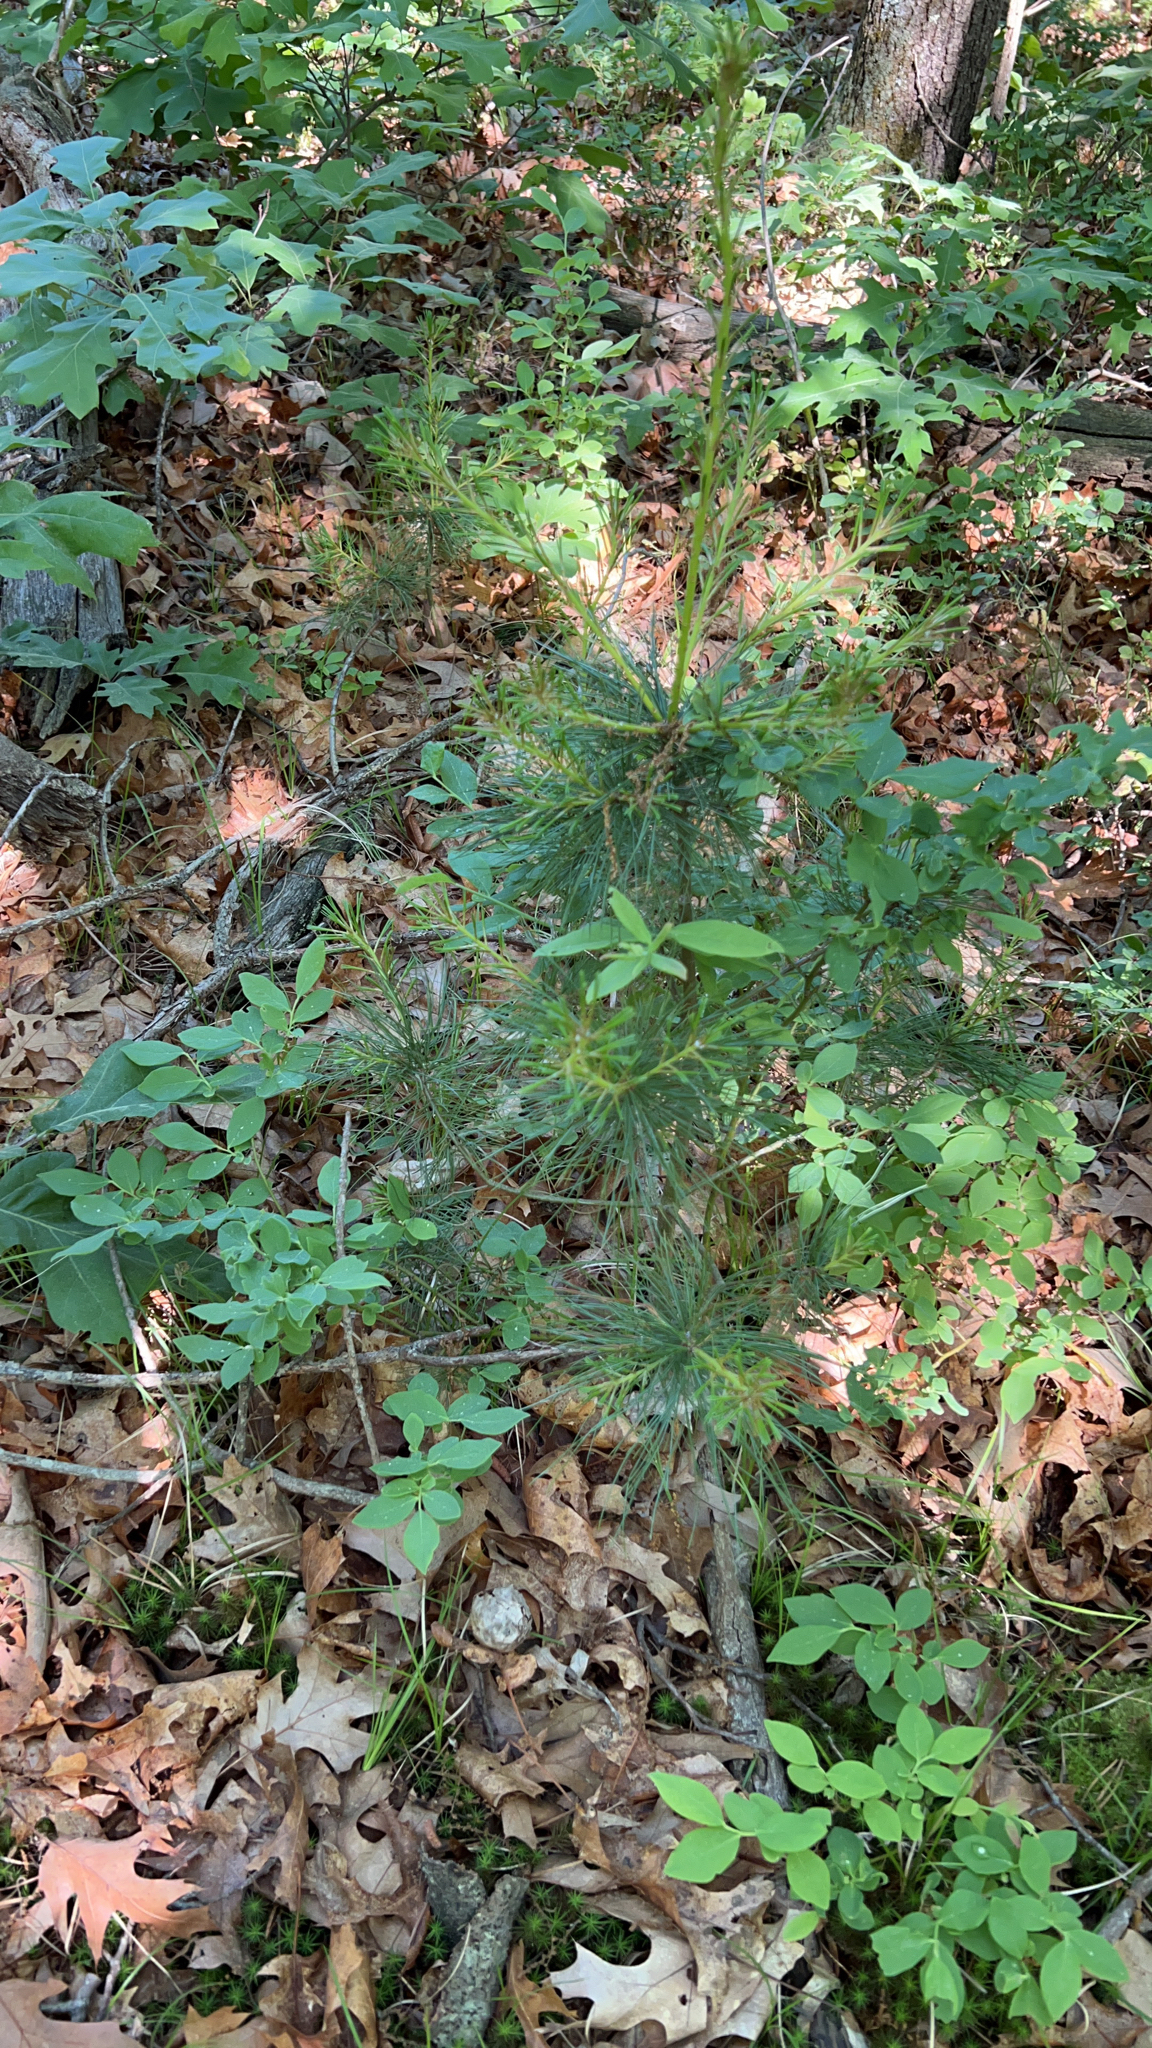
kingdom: Plantae
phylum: Tracheophyta
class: Pinopsida
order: Pinales
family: Pinaceae
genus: Pinus
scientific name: Pinus strobus
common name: Weymouth pine
